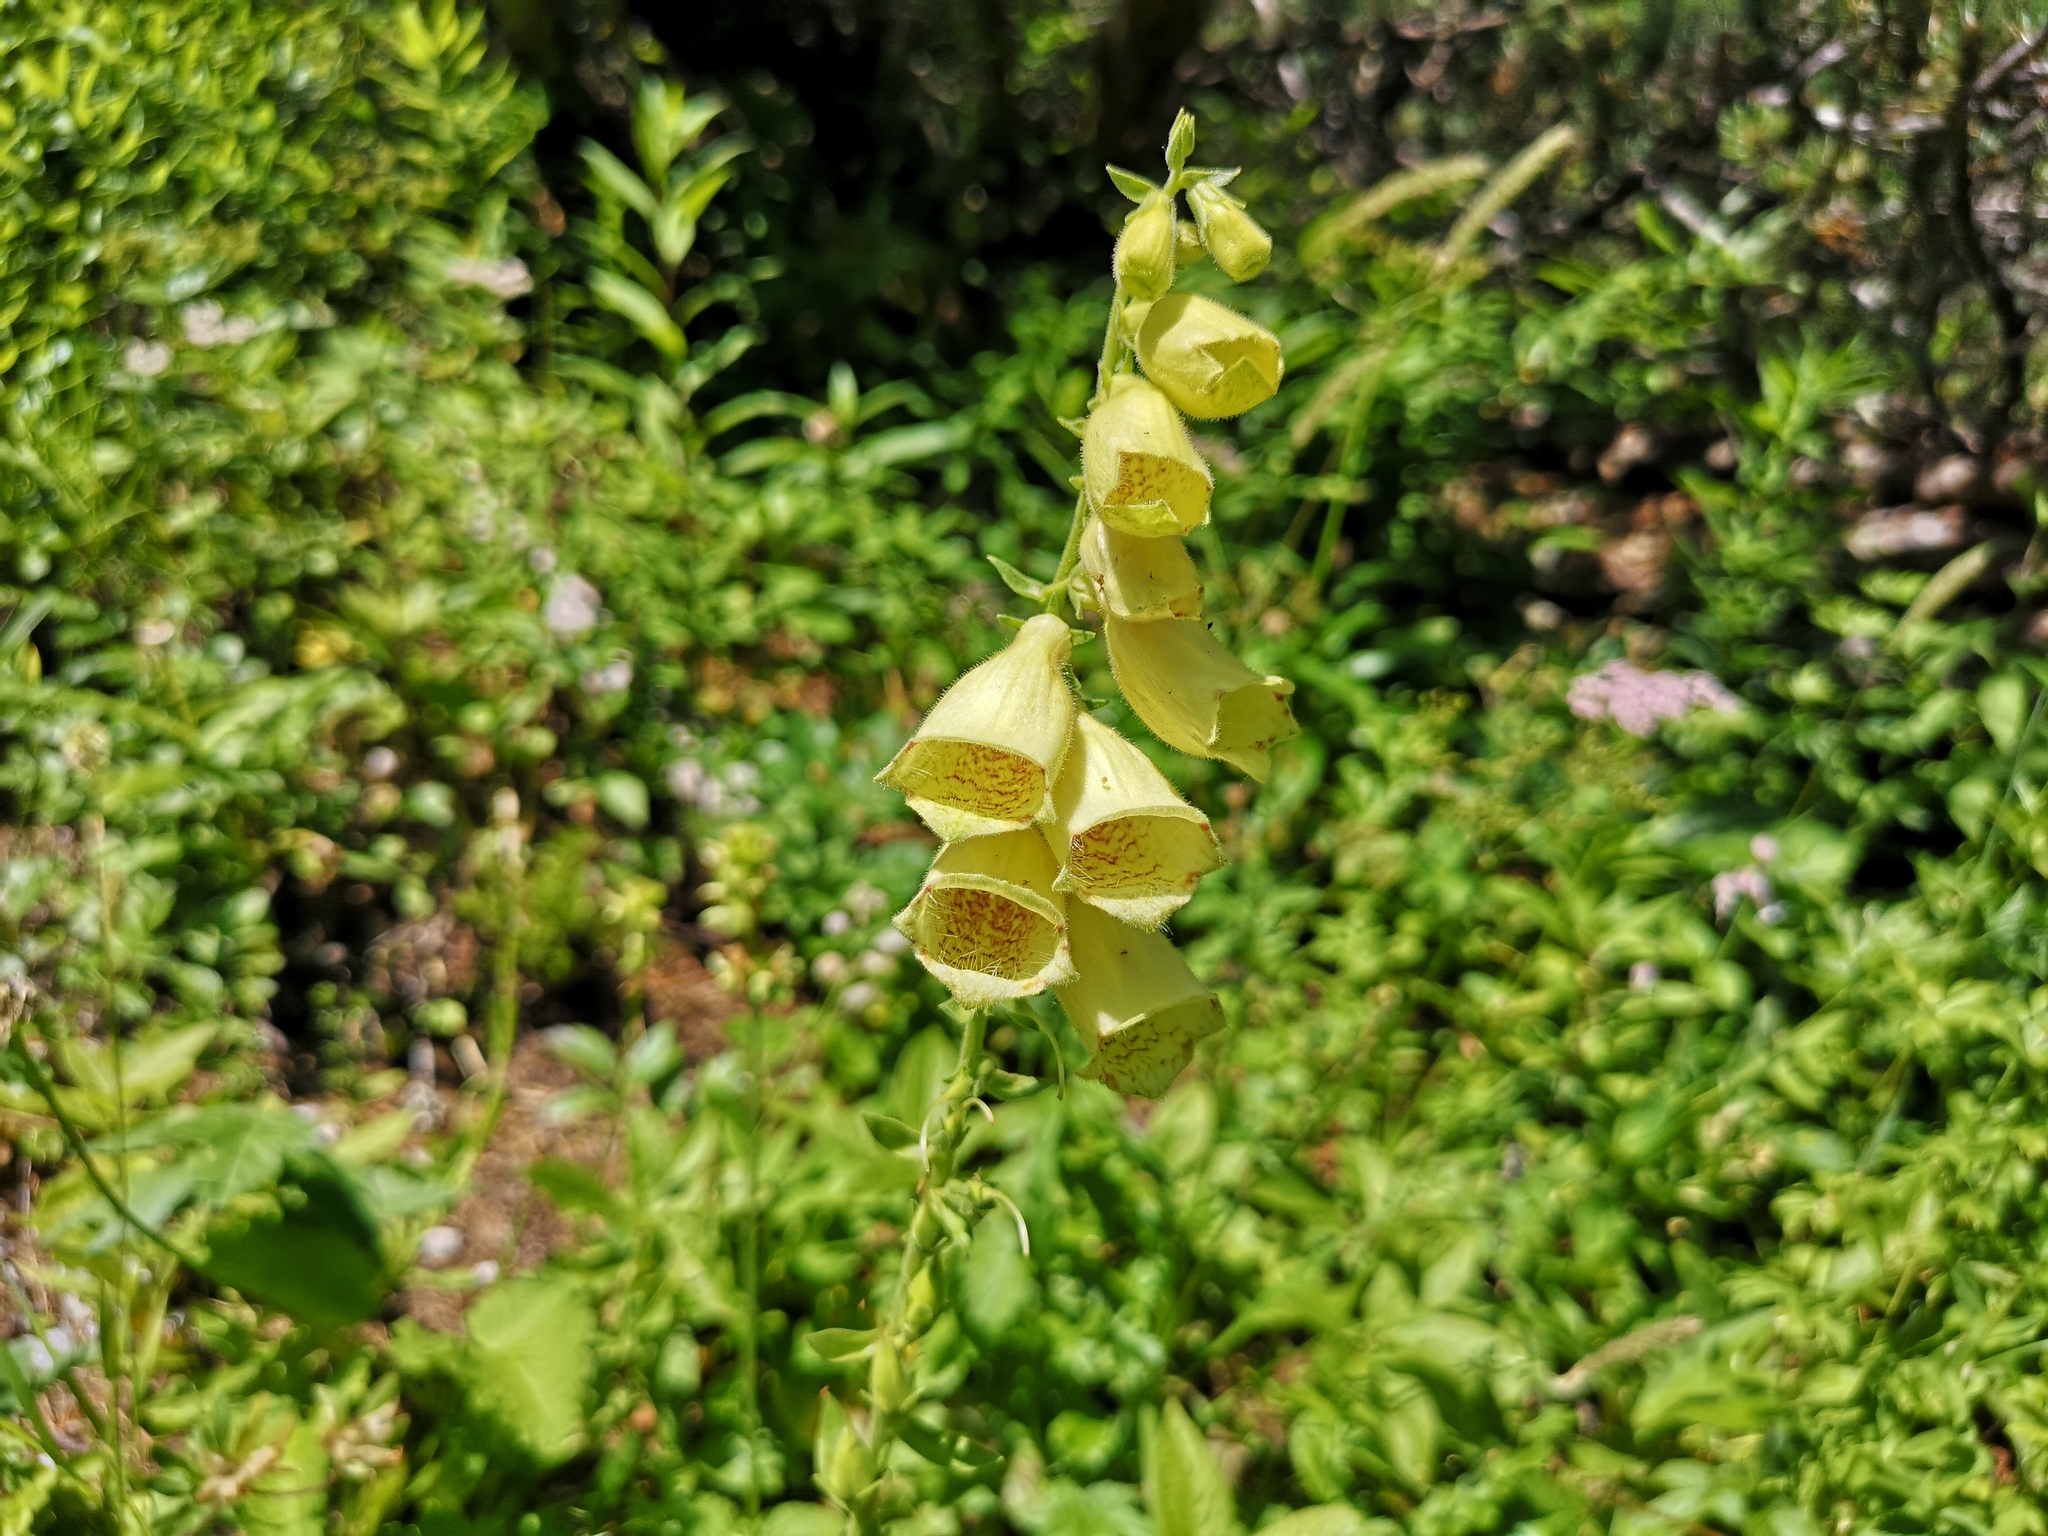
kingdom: Plantae
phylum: Tracheophyta
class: Magnoliopsida
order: Lamiales
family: Plantaginaceae
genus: Digitalis
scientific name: Digitalis grandiflora
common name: Yellow foxglove
